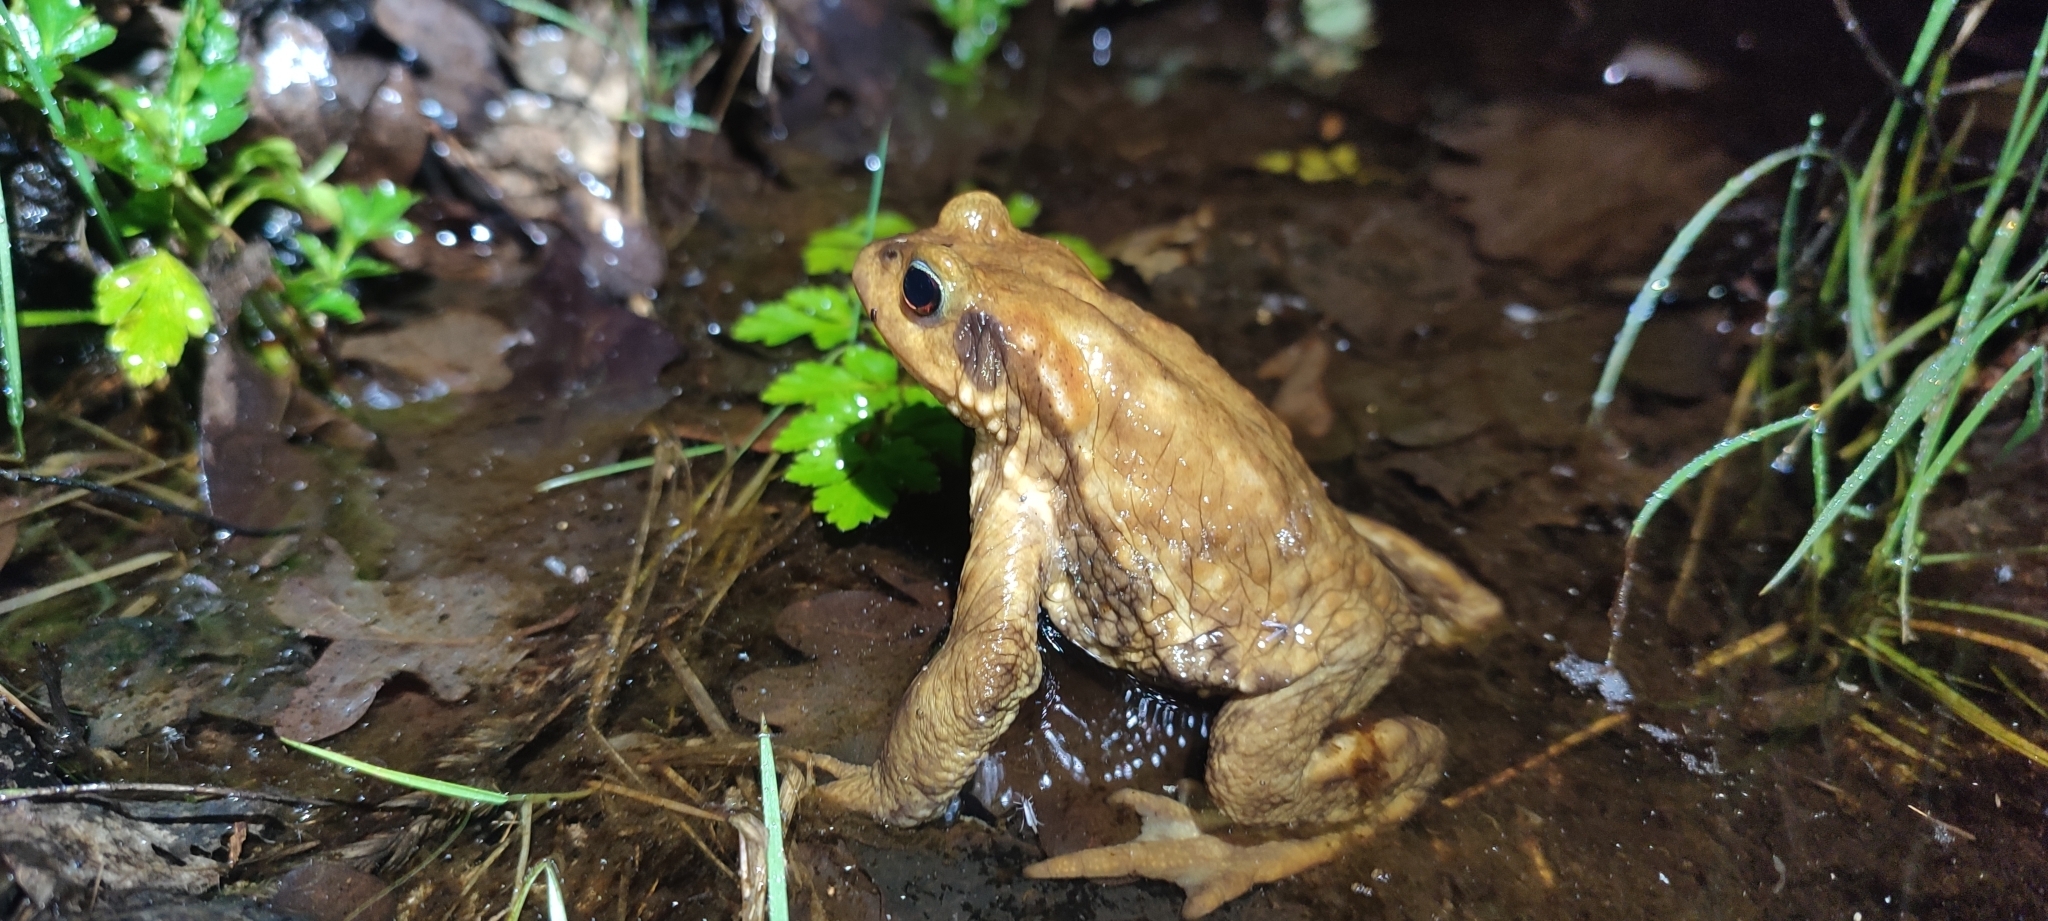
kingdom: Animalia
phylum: Chordata
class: Amphibia
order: Anura
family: Bufonidae
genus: Bufo
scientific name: Bufo spinosus
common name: Western common toad
